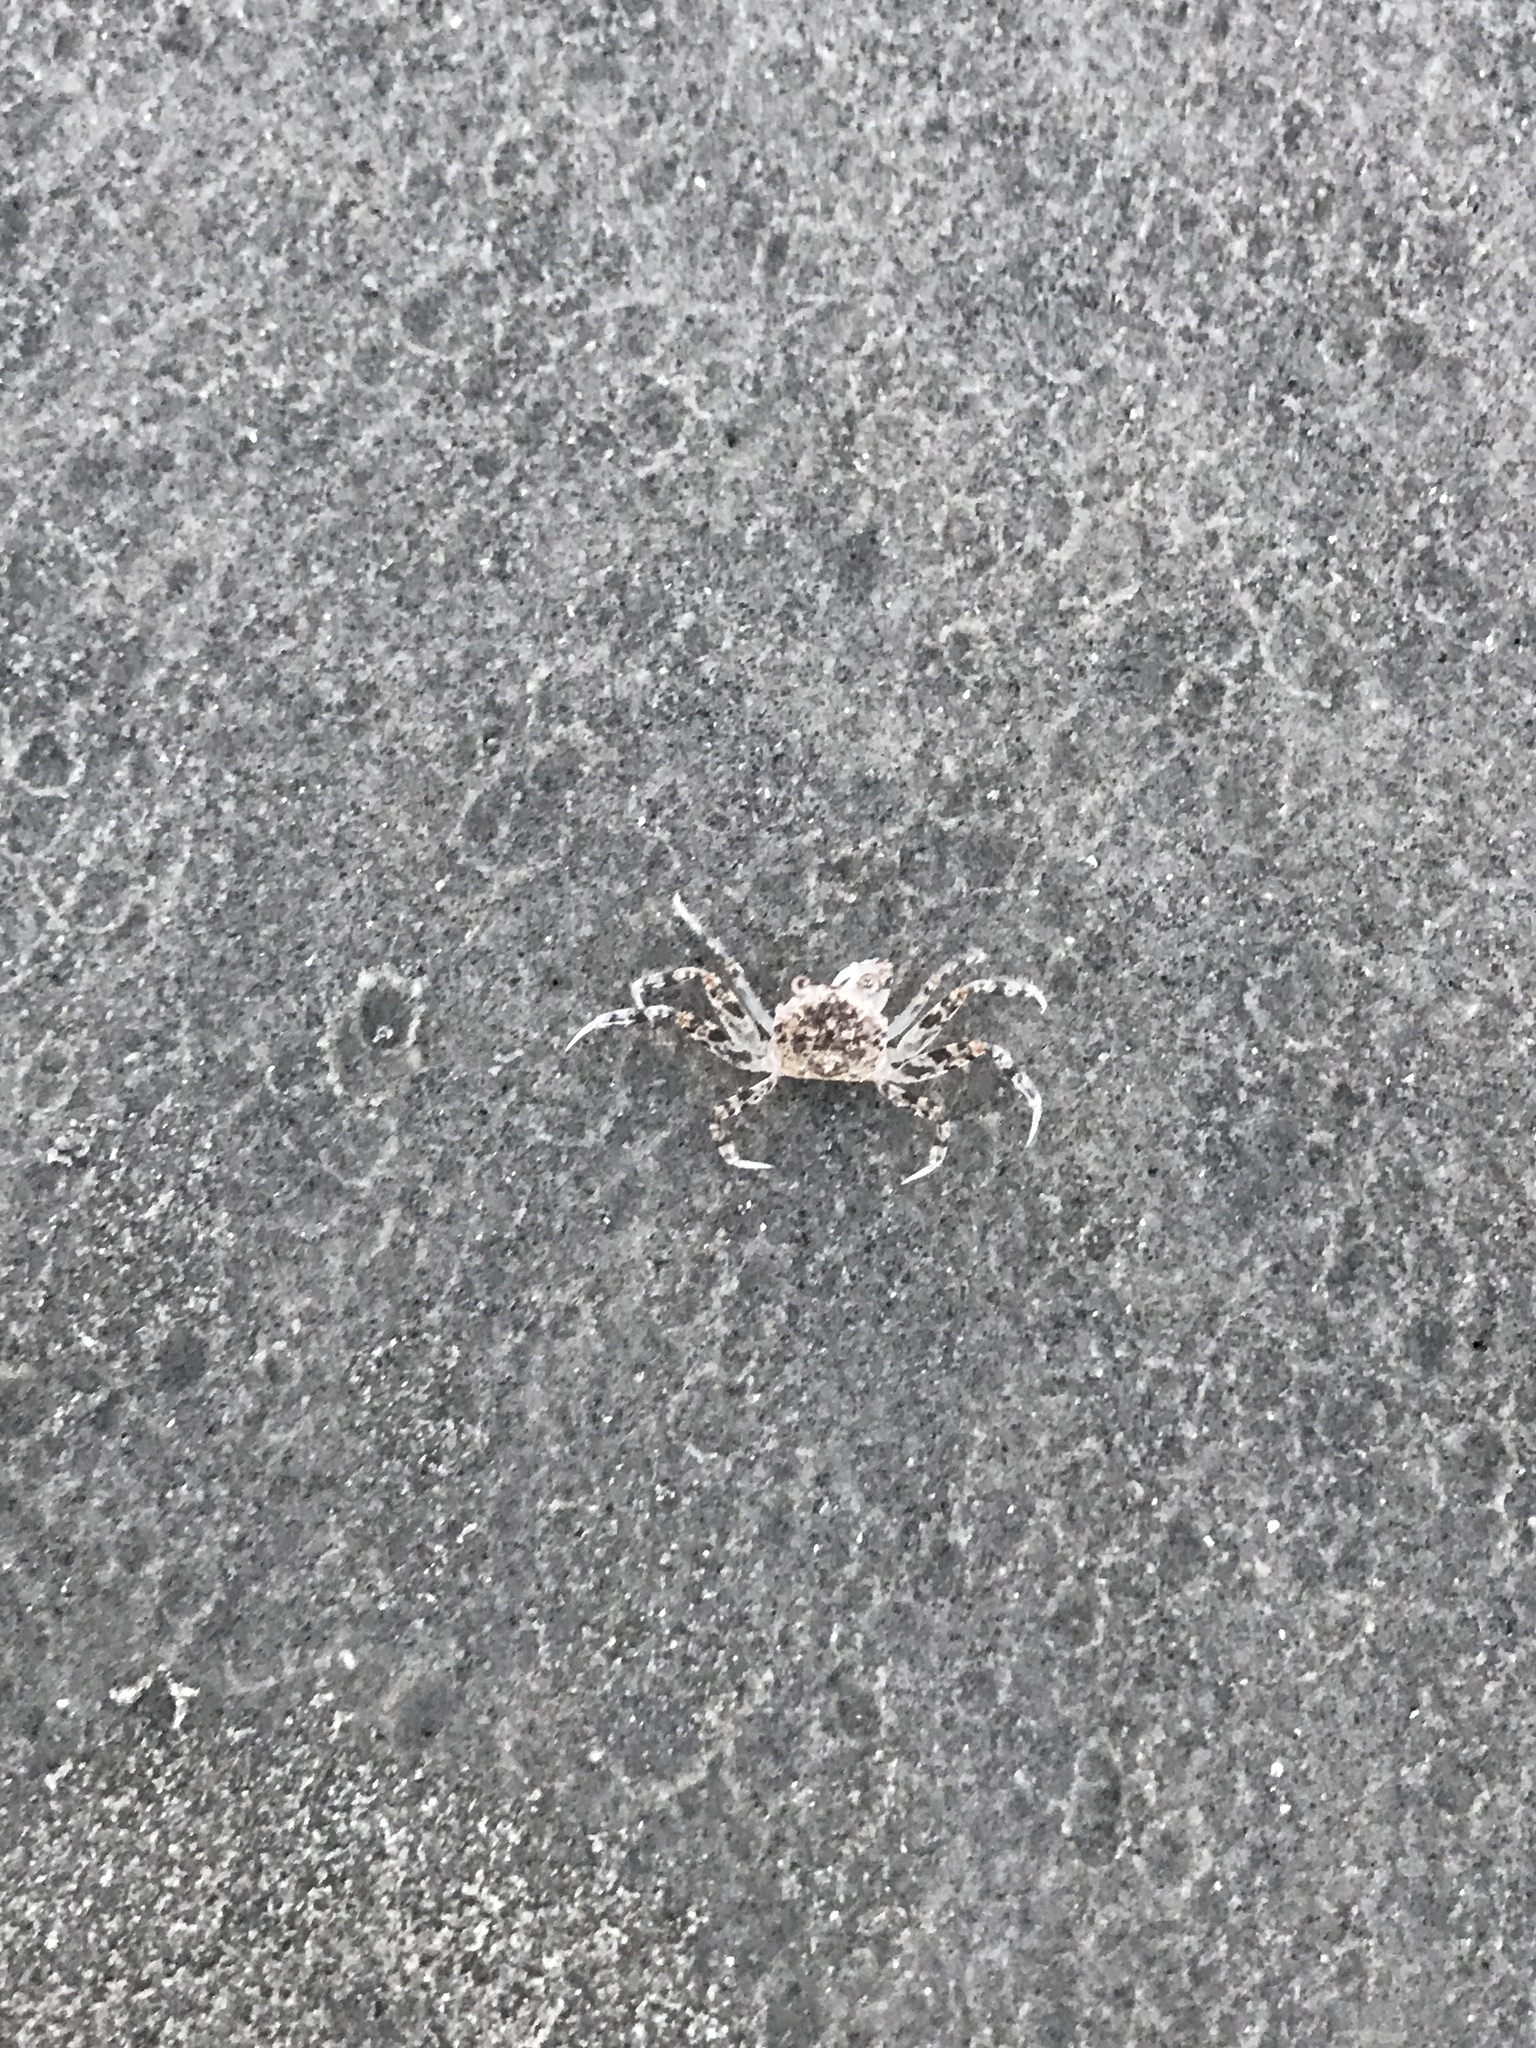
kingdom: Animalia
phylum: Arthropoda
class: Malacostraca
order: Decapoda
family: Ocypodidae
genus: Ocypode
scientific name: Ocypode quadrata
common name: Ghost crab
